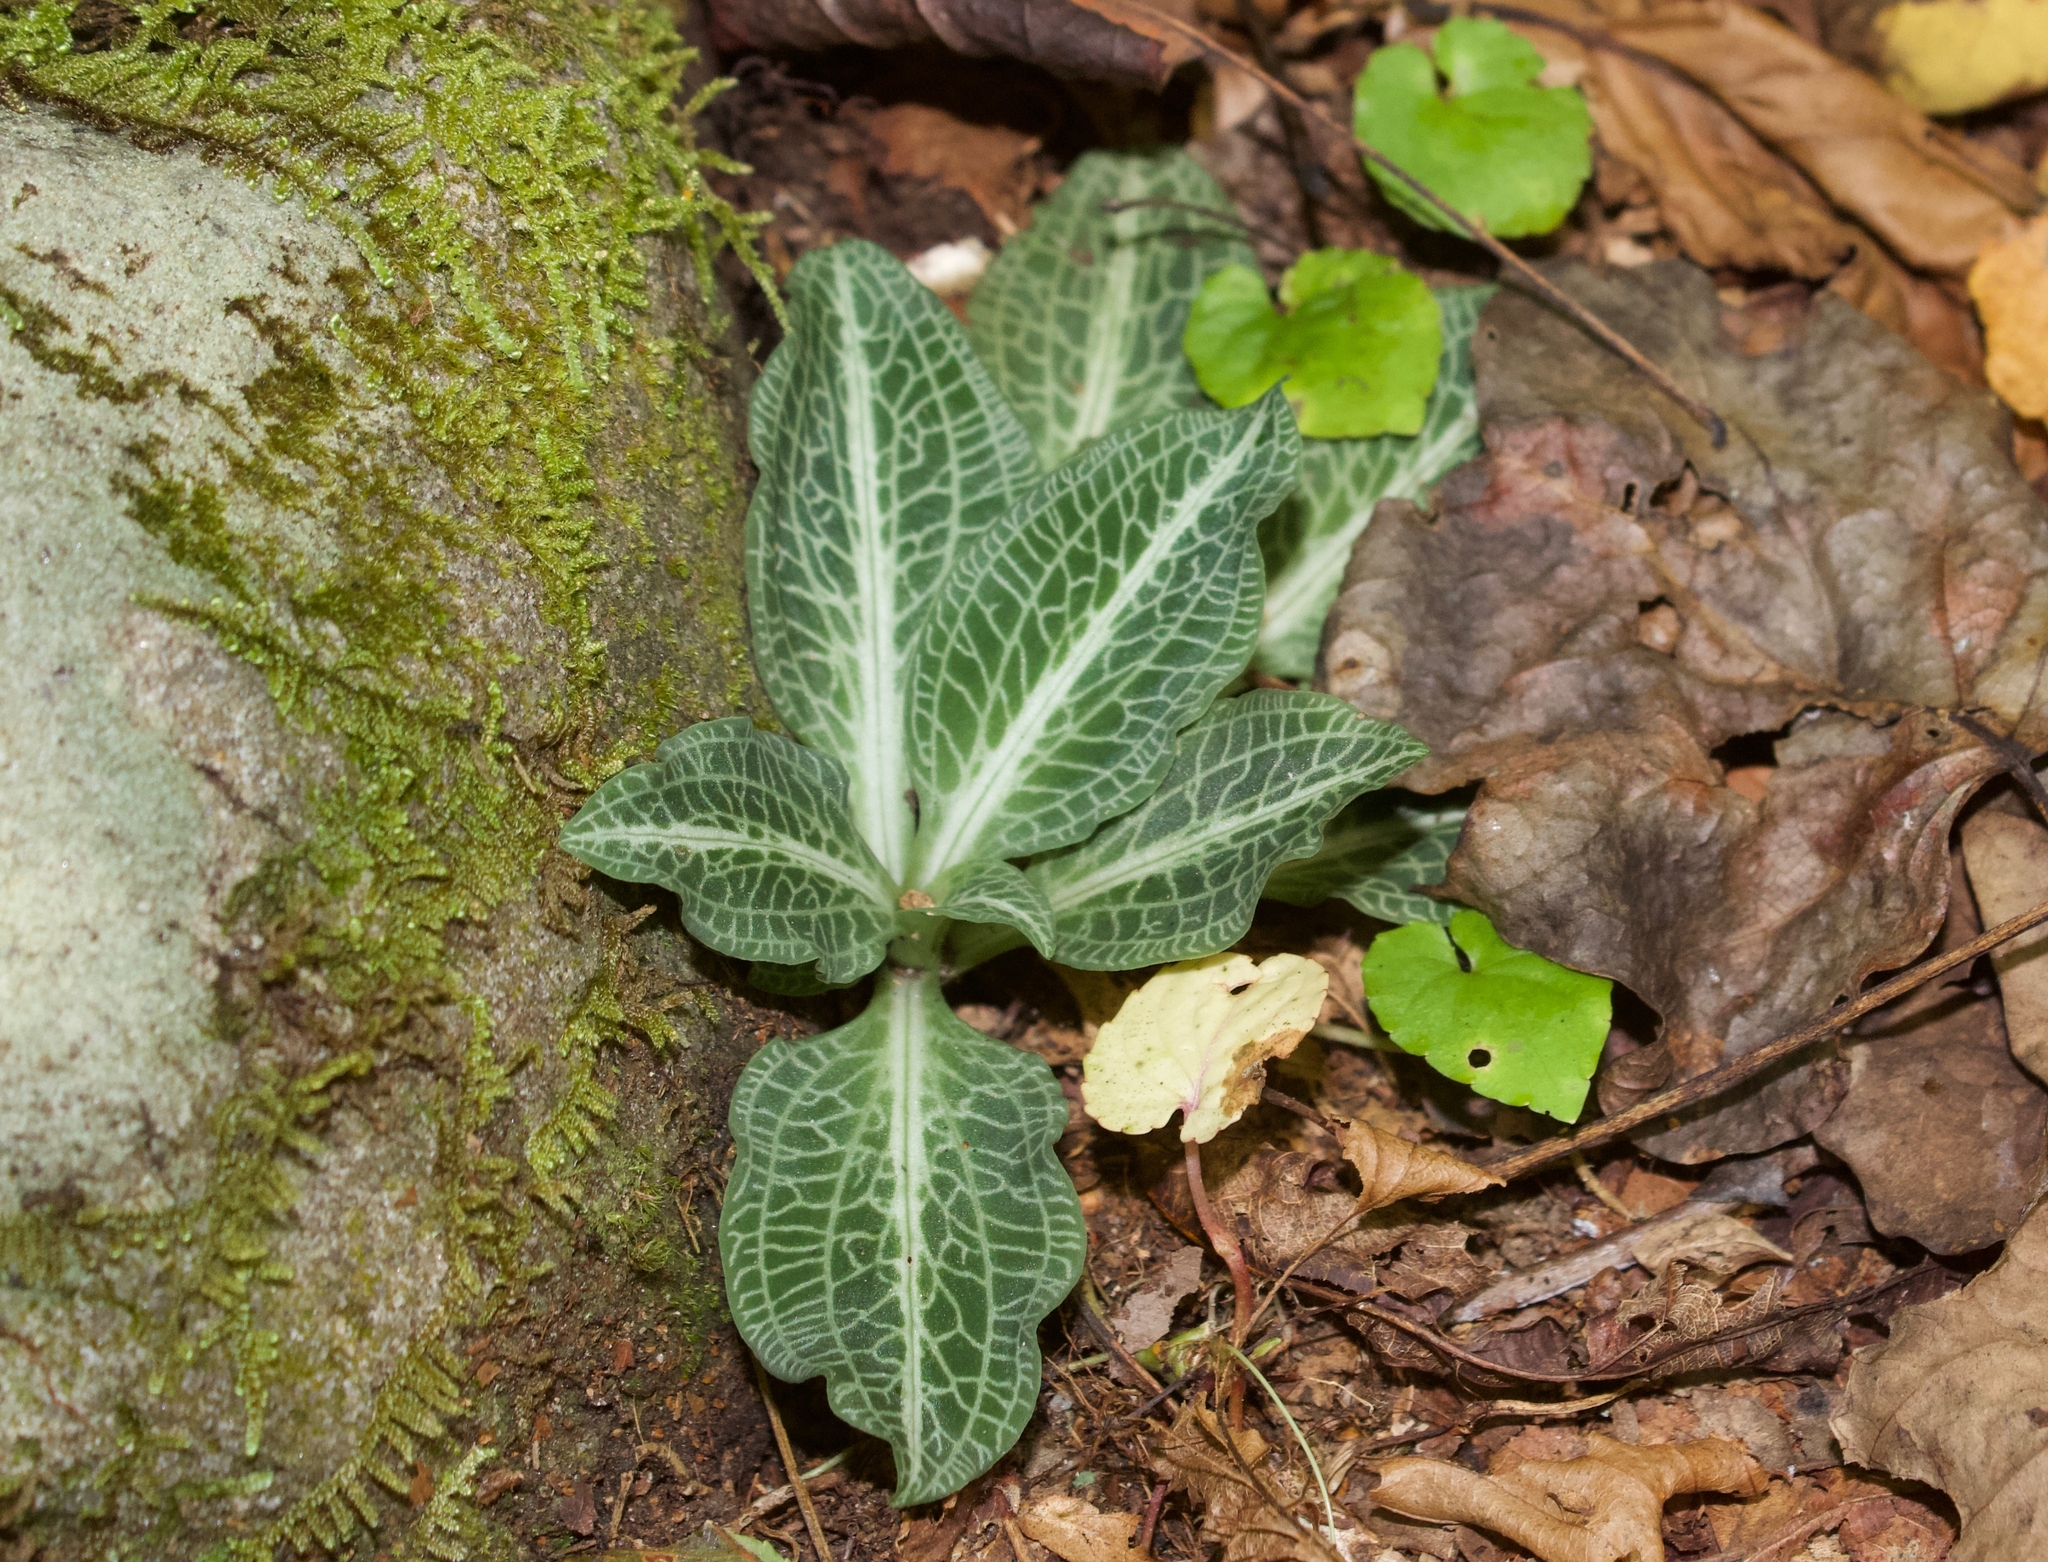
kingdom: Plantae
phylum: Tracheophyta
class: Liliopsida
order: Asparagales
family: Orchidaceae
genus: Goodyera
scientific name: Goodyera pubescens
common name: Downy rattlesnake-plantain
